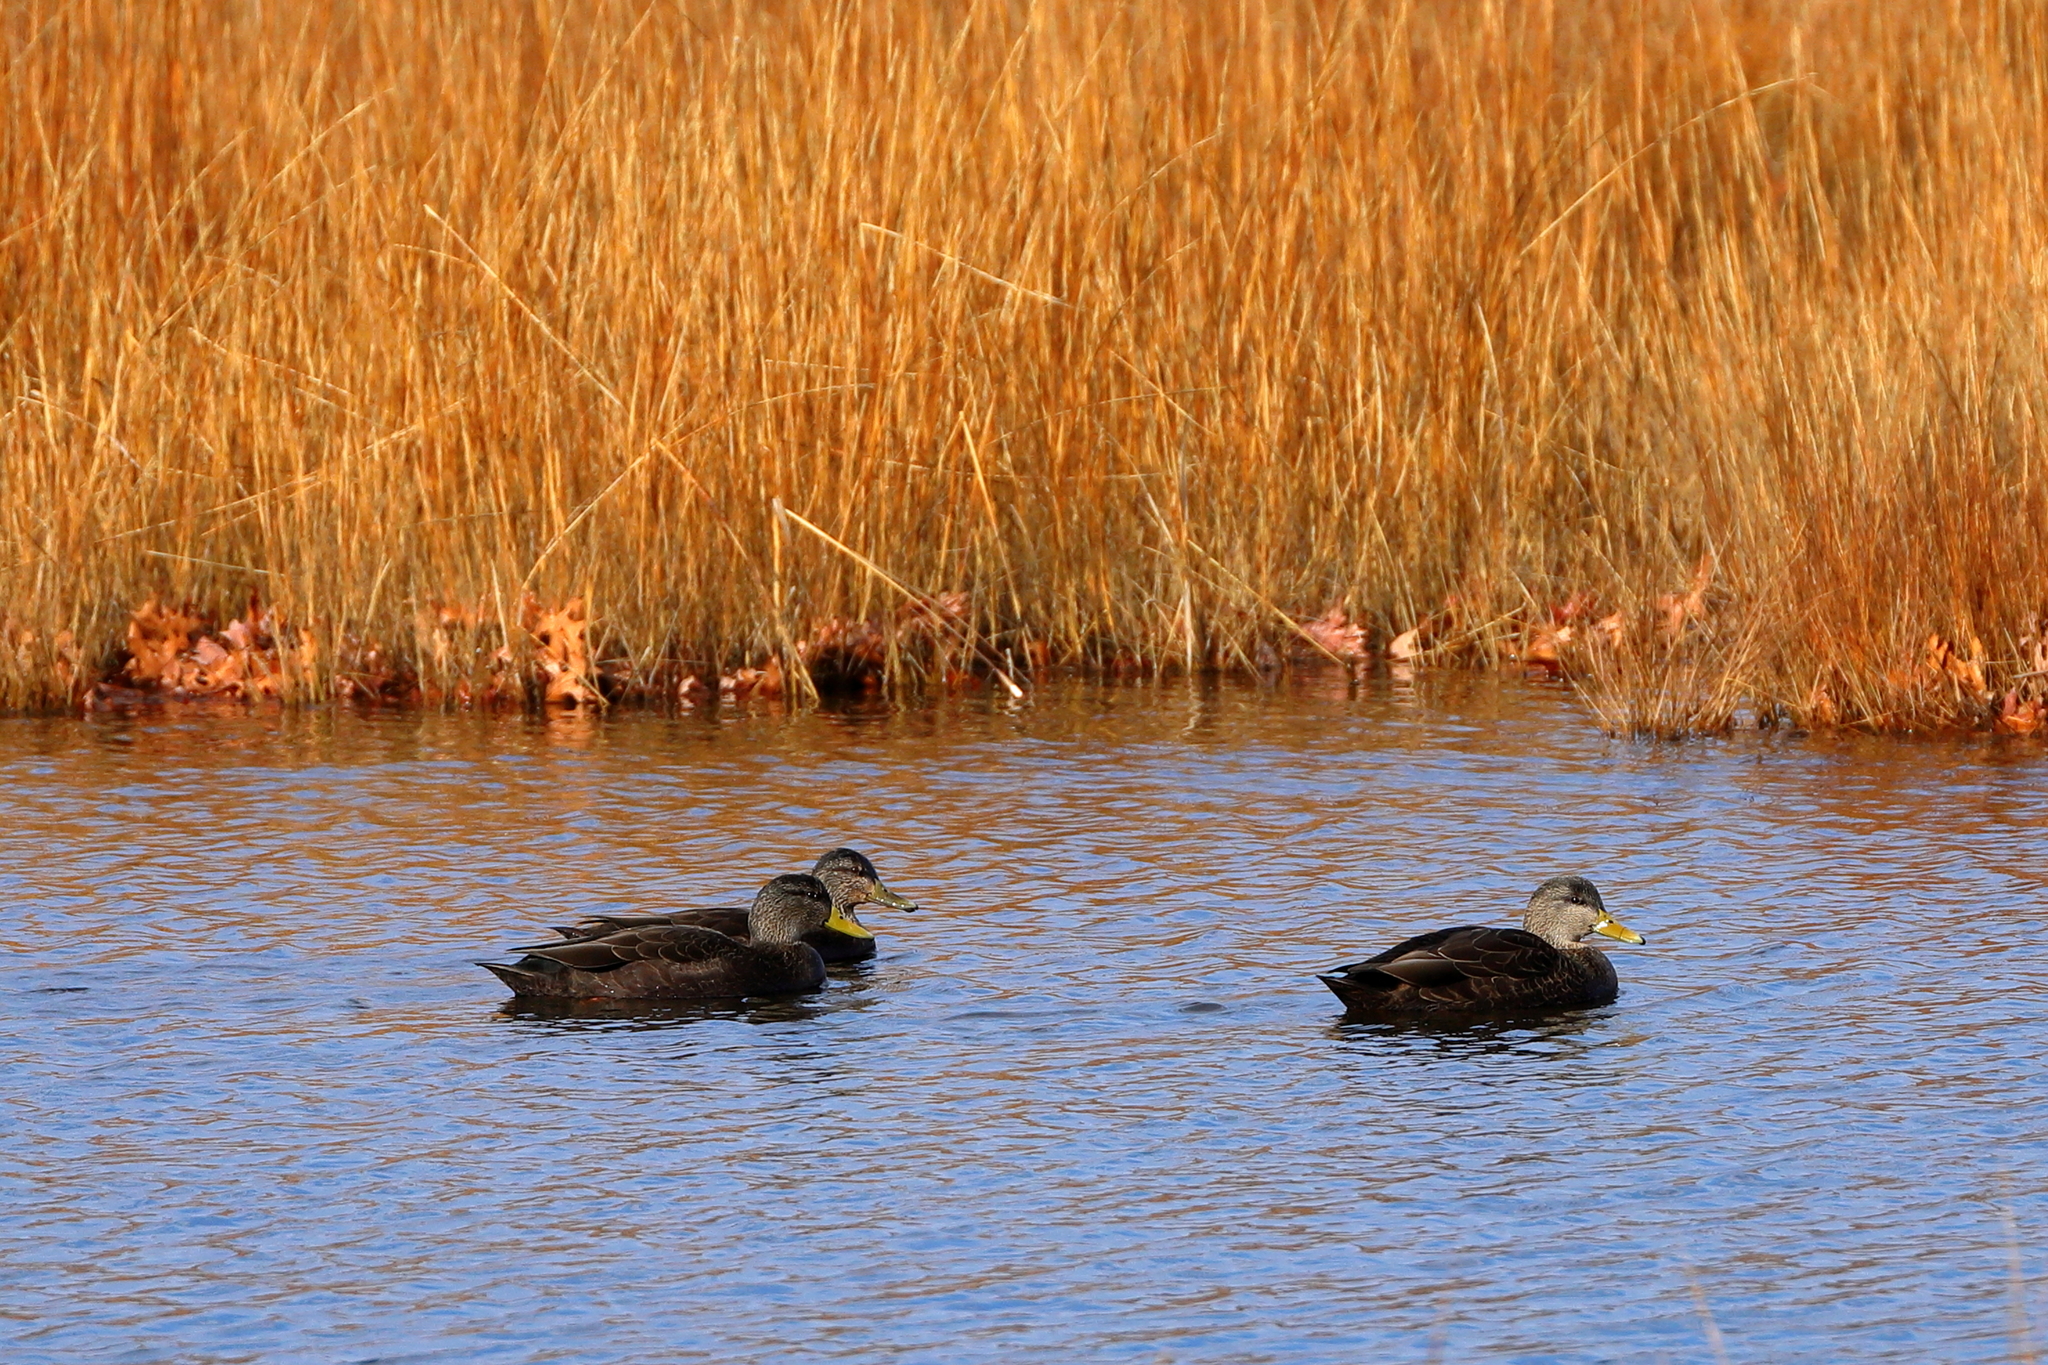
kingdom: Animalia
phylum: Chordata
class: Aves
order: Anseriformes
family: Anatidae
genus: Anas
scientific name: Anas rubripes
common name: American black duck
